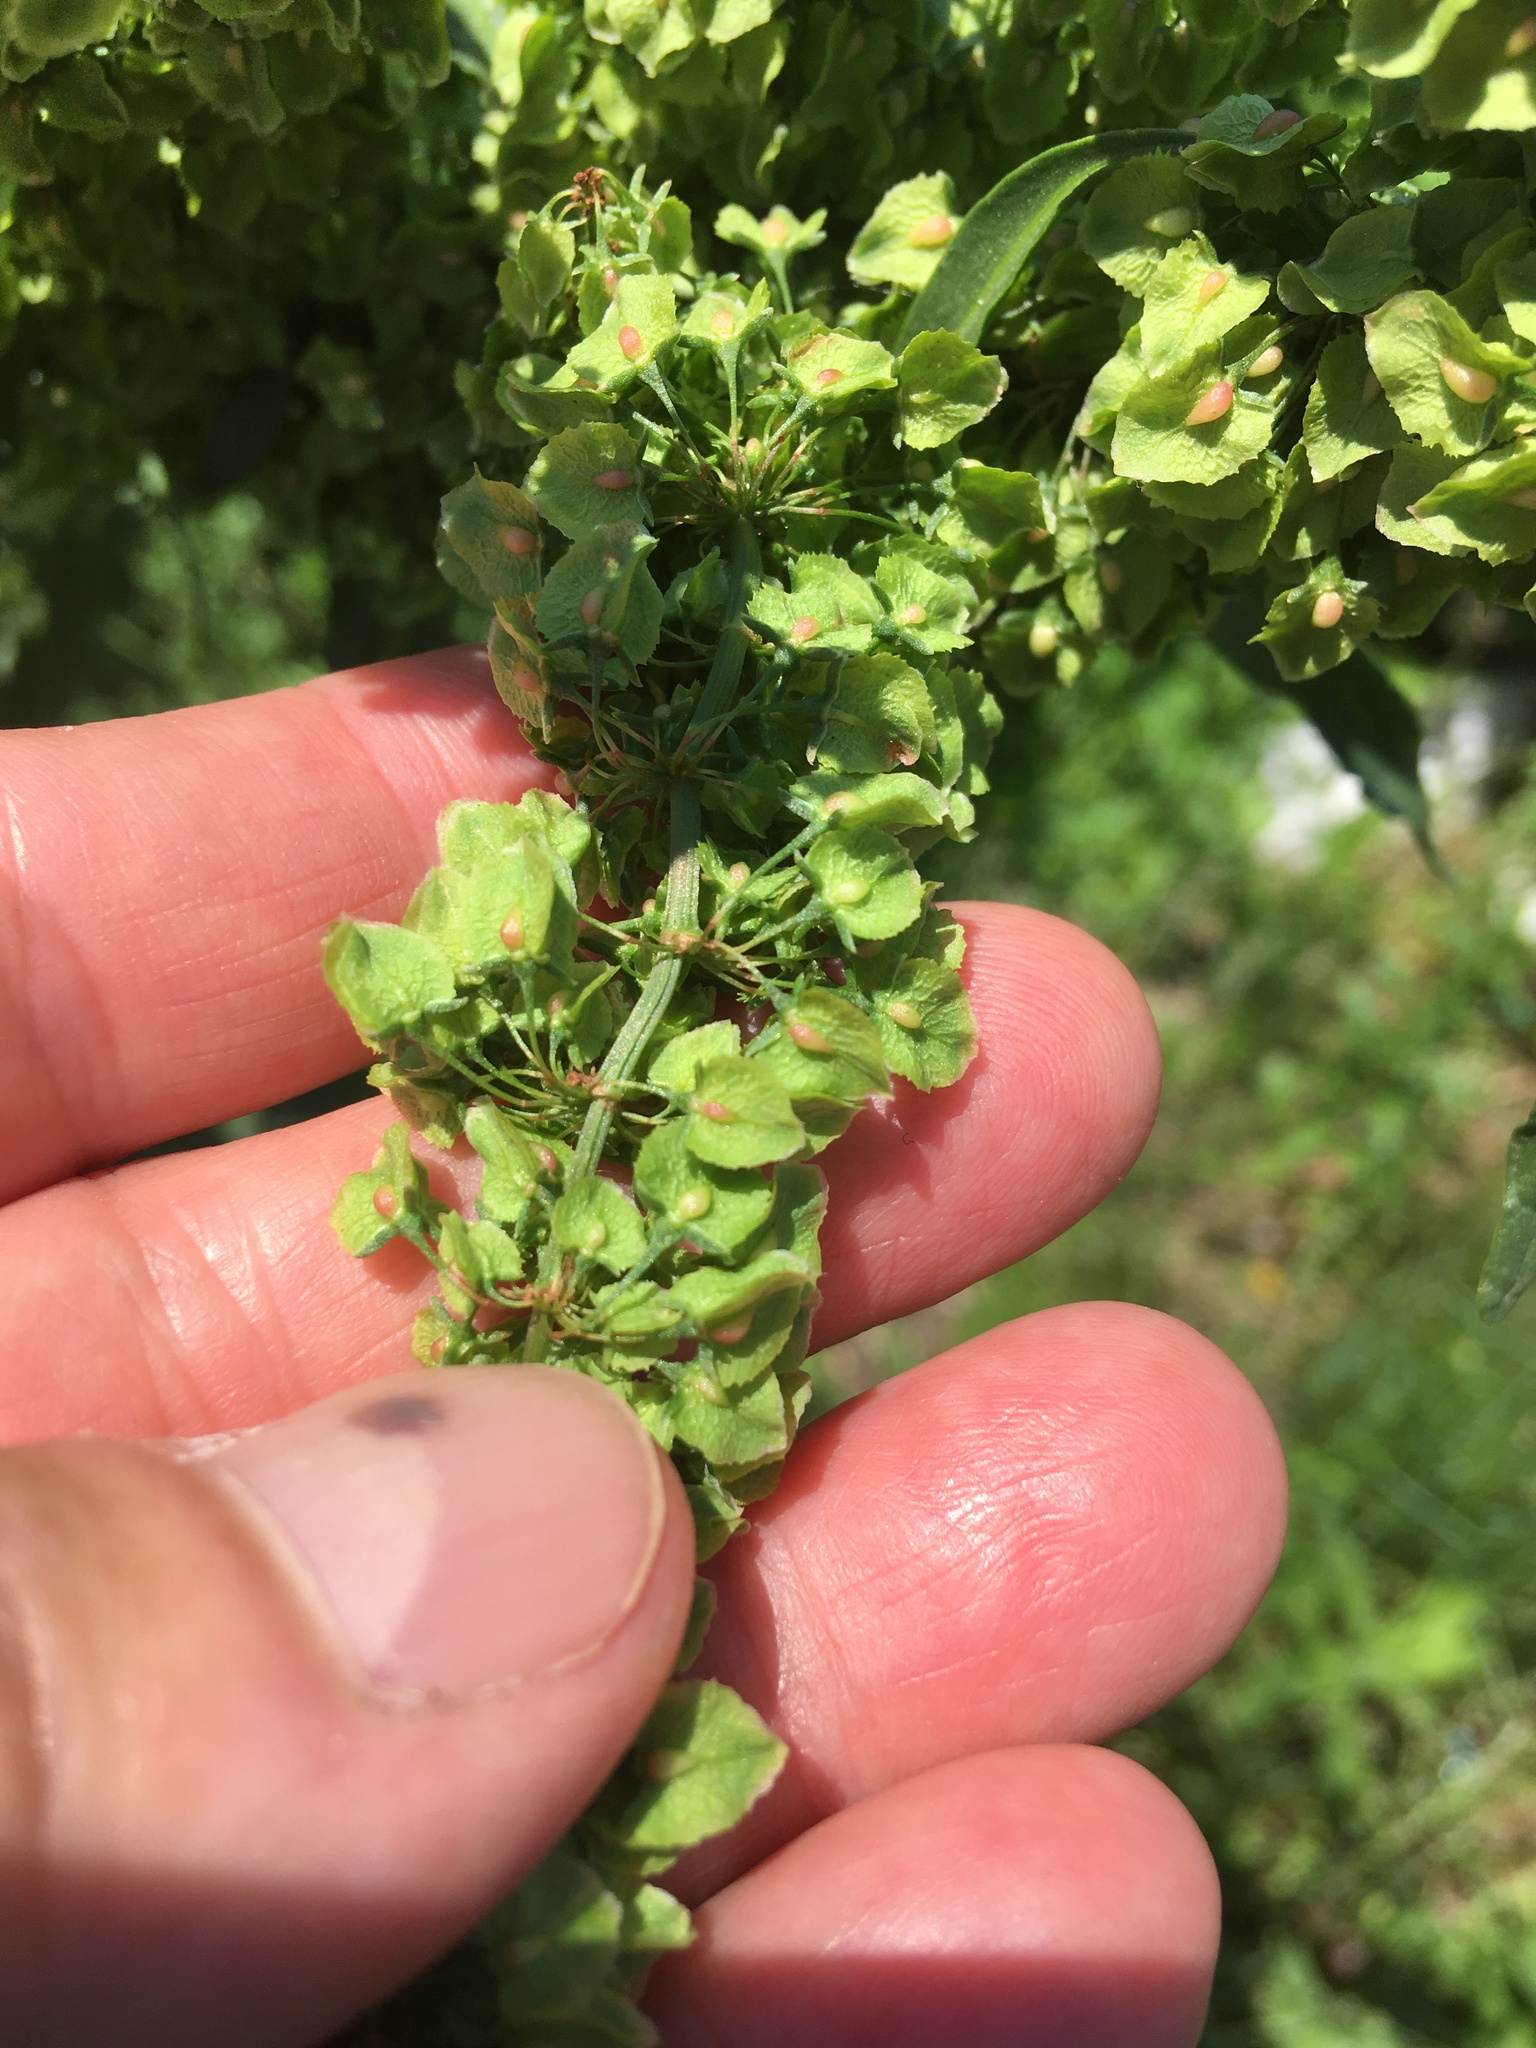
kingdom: Plantae
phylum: Tracheophyta
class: Magnoliopsida
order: Caryophyllales
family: Polygonaceae
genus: Rumex
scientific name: Rumex crispus
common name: Curled dock
